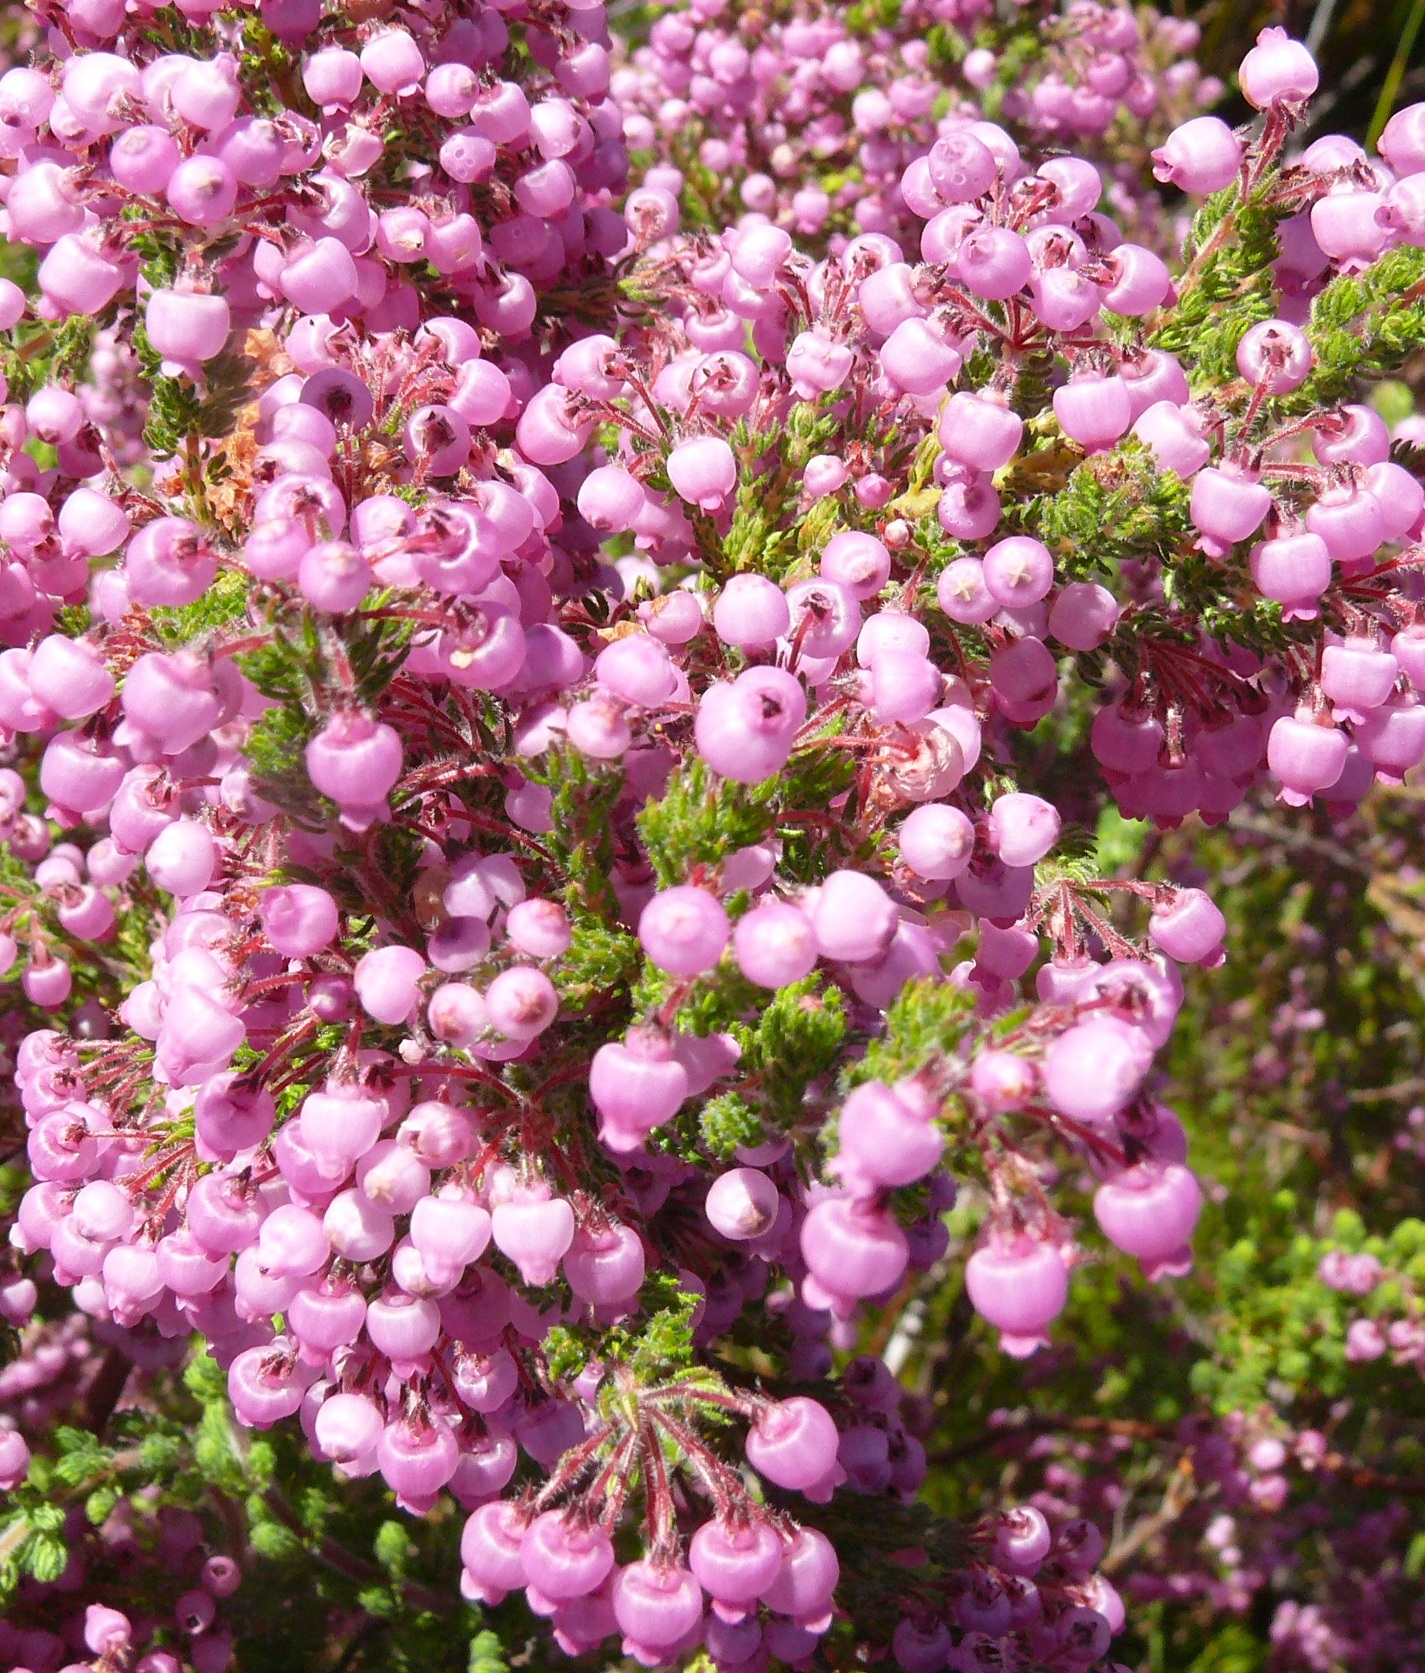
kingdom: Plantae
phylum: Tracheophyta
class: Magnoliopsida
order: Ericales
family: Ericaceae
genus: Erica
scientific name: Erica bergiana
